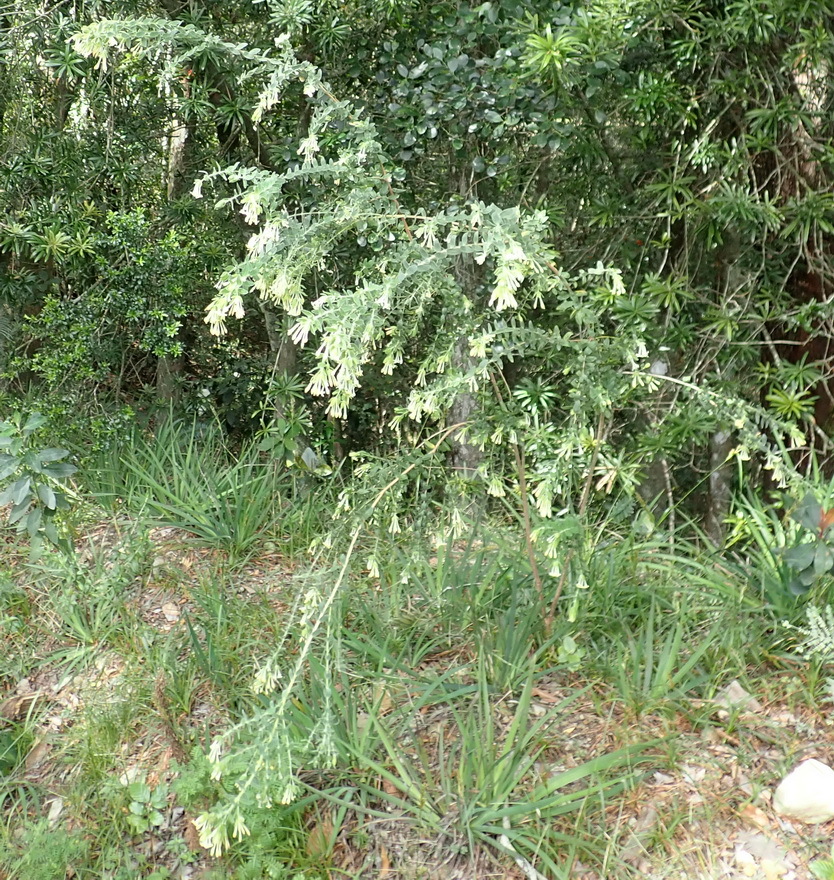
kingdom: Plantae
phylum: Tracheophyta
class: Magnoliopsida
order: Malvales
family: Thymelaeaceae
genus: Gnidia
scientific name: Gnidia
